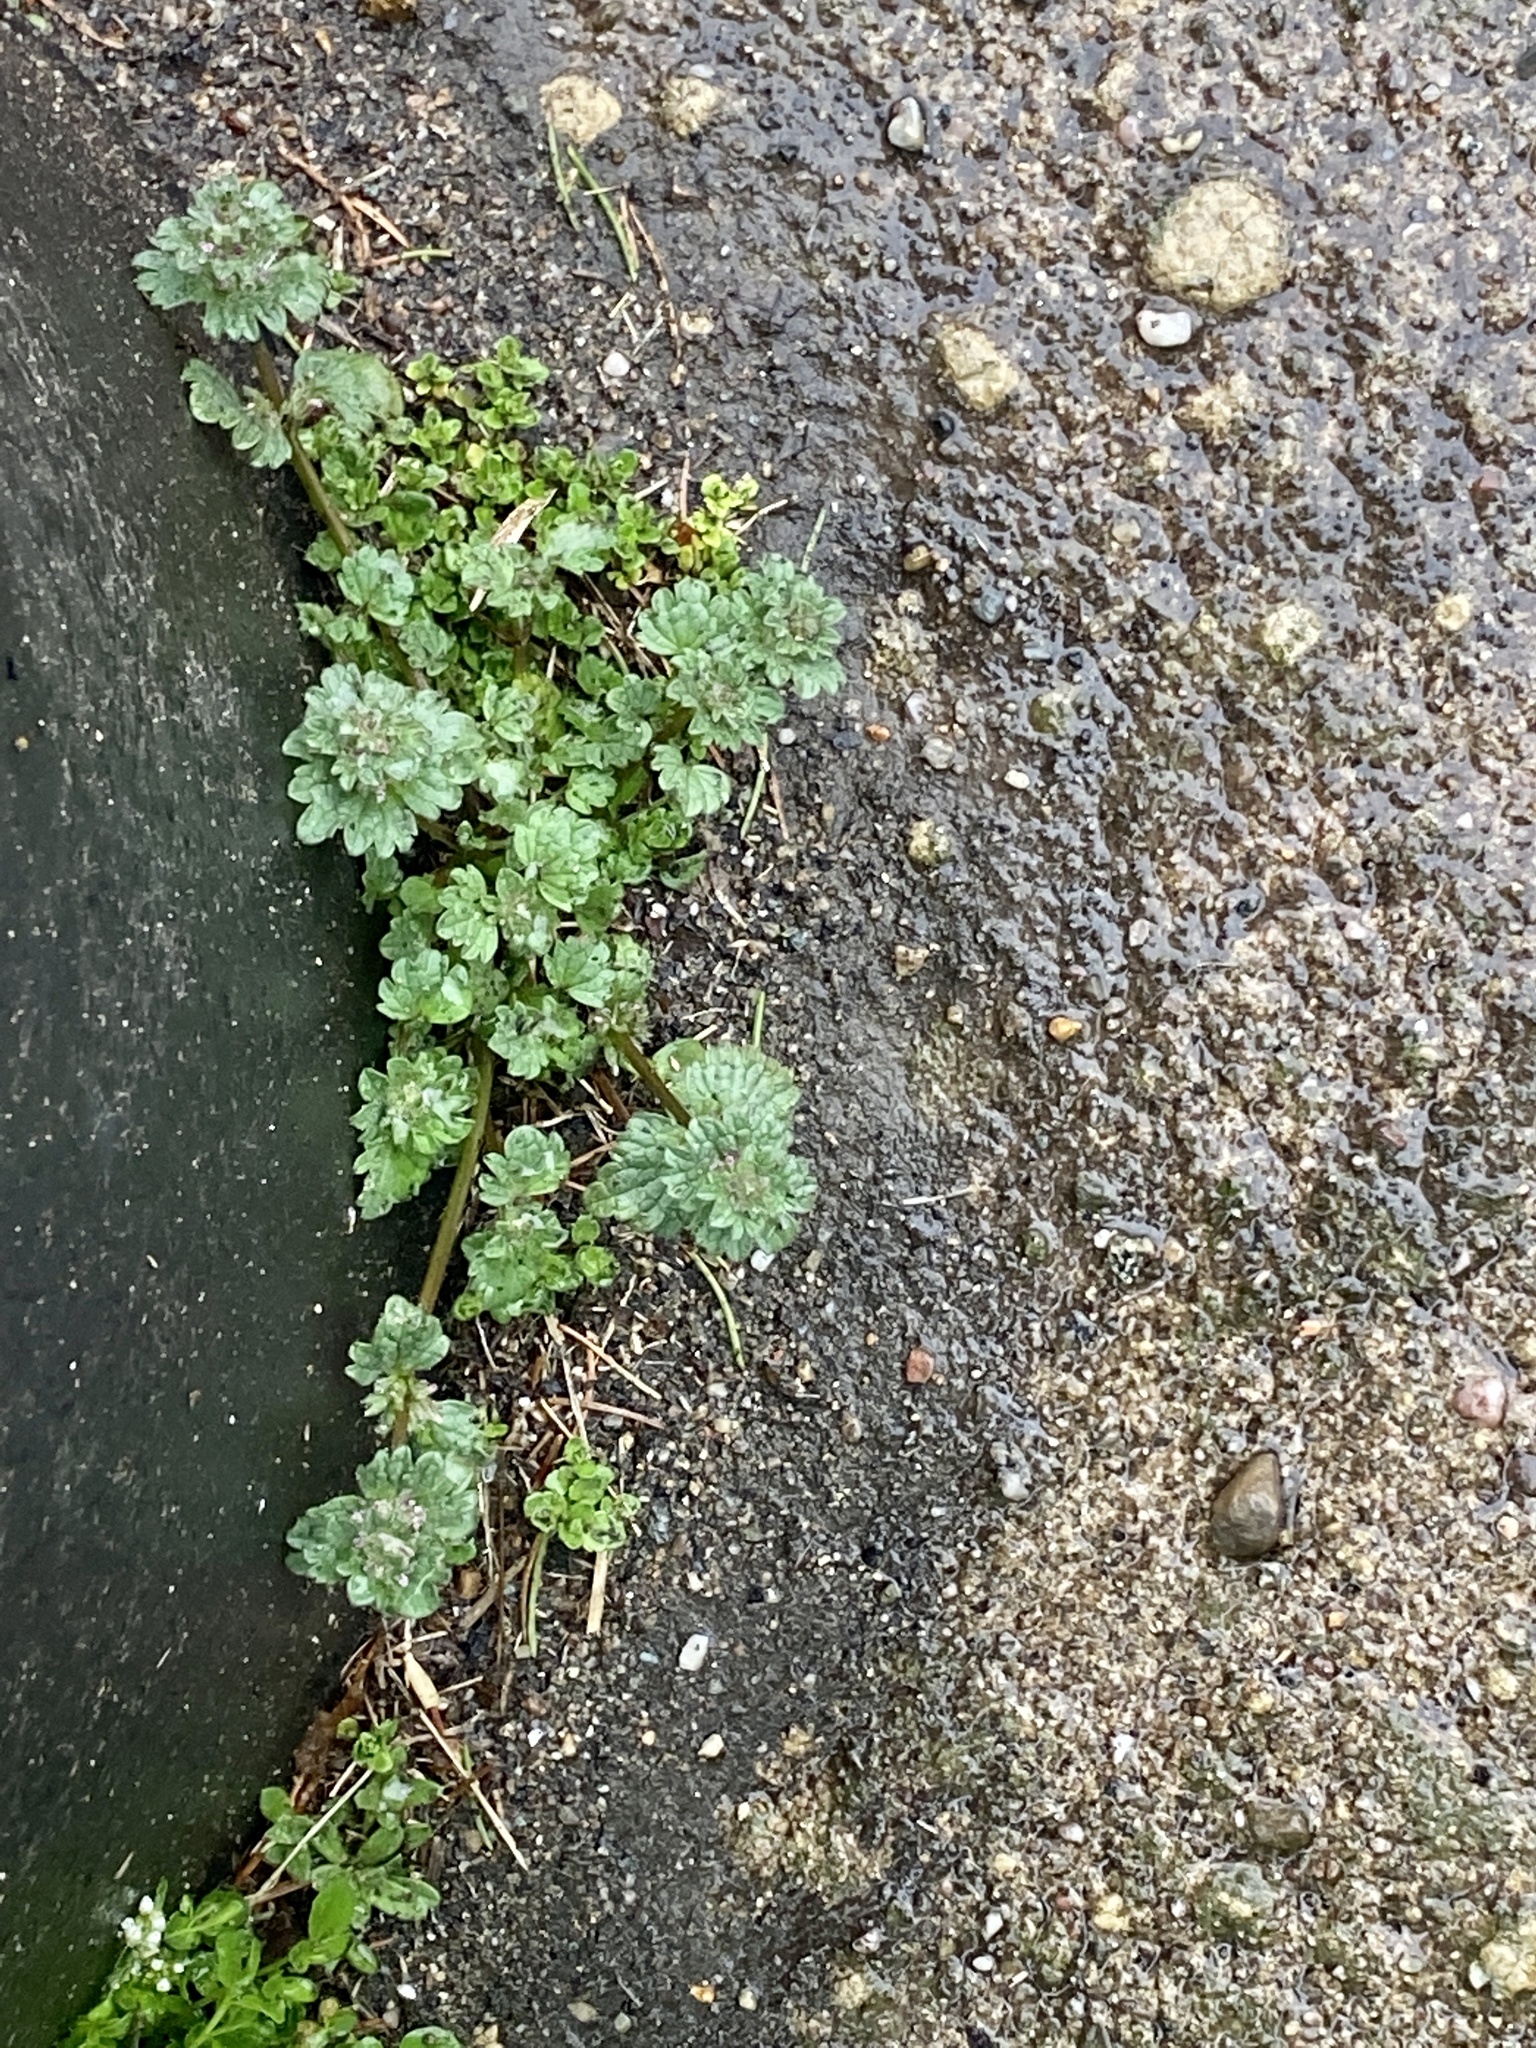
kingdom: Plantae
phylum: Tracheophyta
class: Magnoliopsida
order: Lamiales
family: Lamiaceae
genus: Lamium
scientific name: Lamium amplexicaule
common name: Henbit dead-nettle
